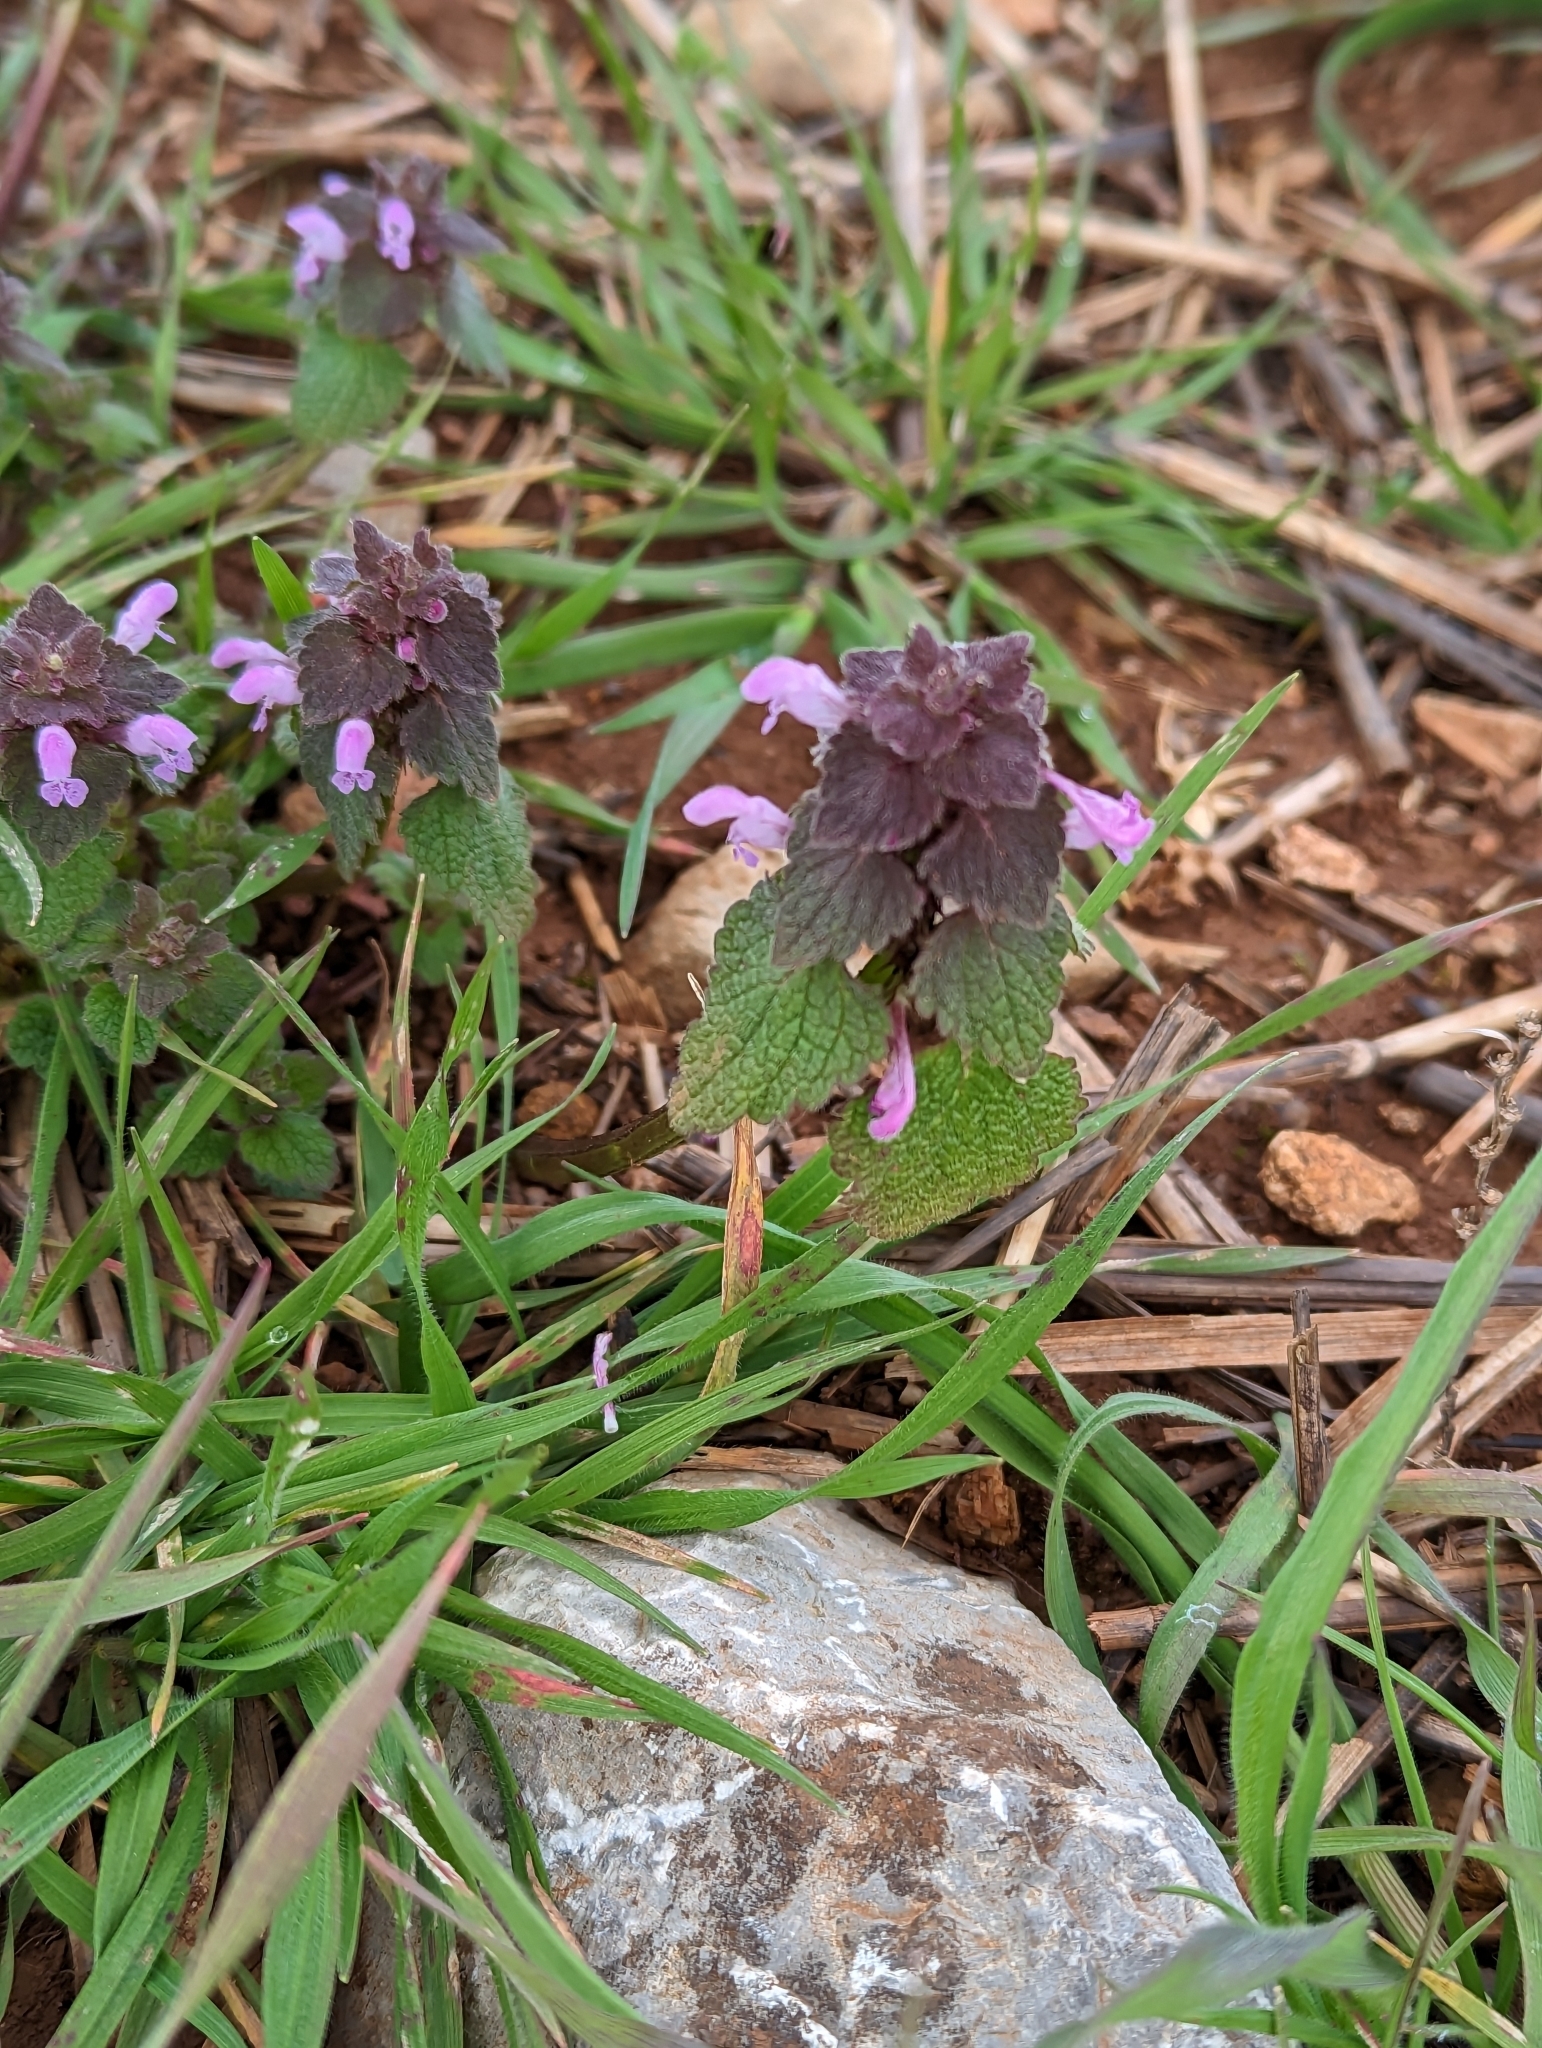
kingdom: Plantae
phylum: Tracheophyta
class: Magnoliopsida
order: Lamiales
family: Lamiaceae
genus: Lamium
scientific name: Lamium purpureum
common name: Red dead-nettle
